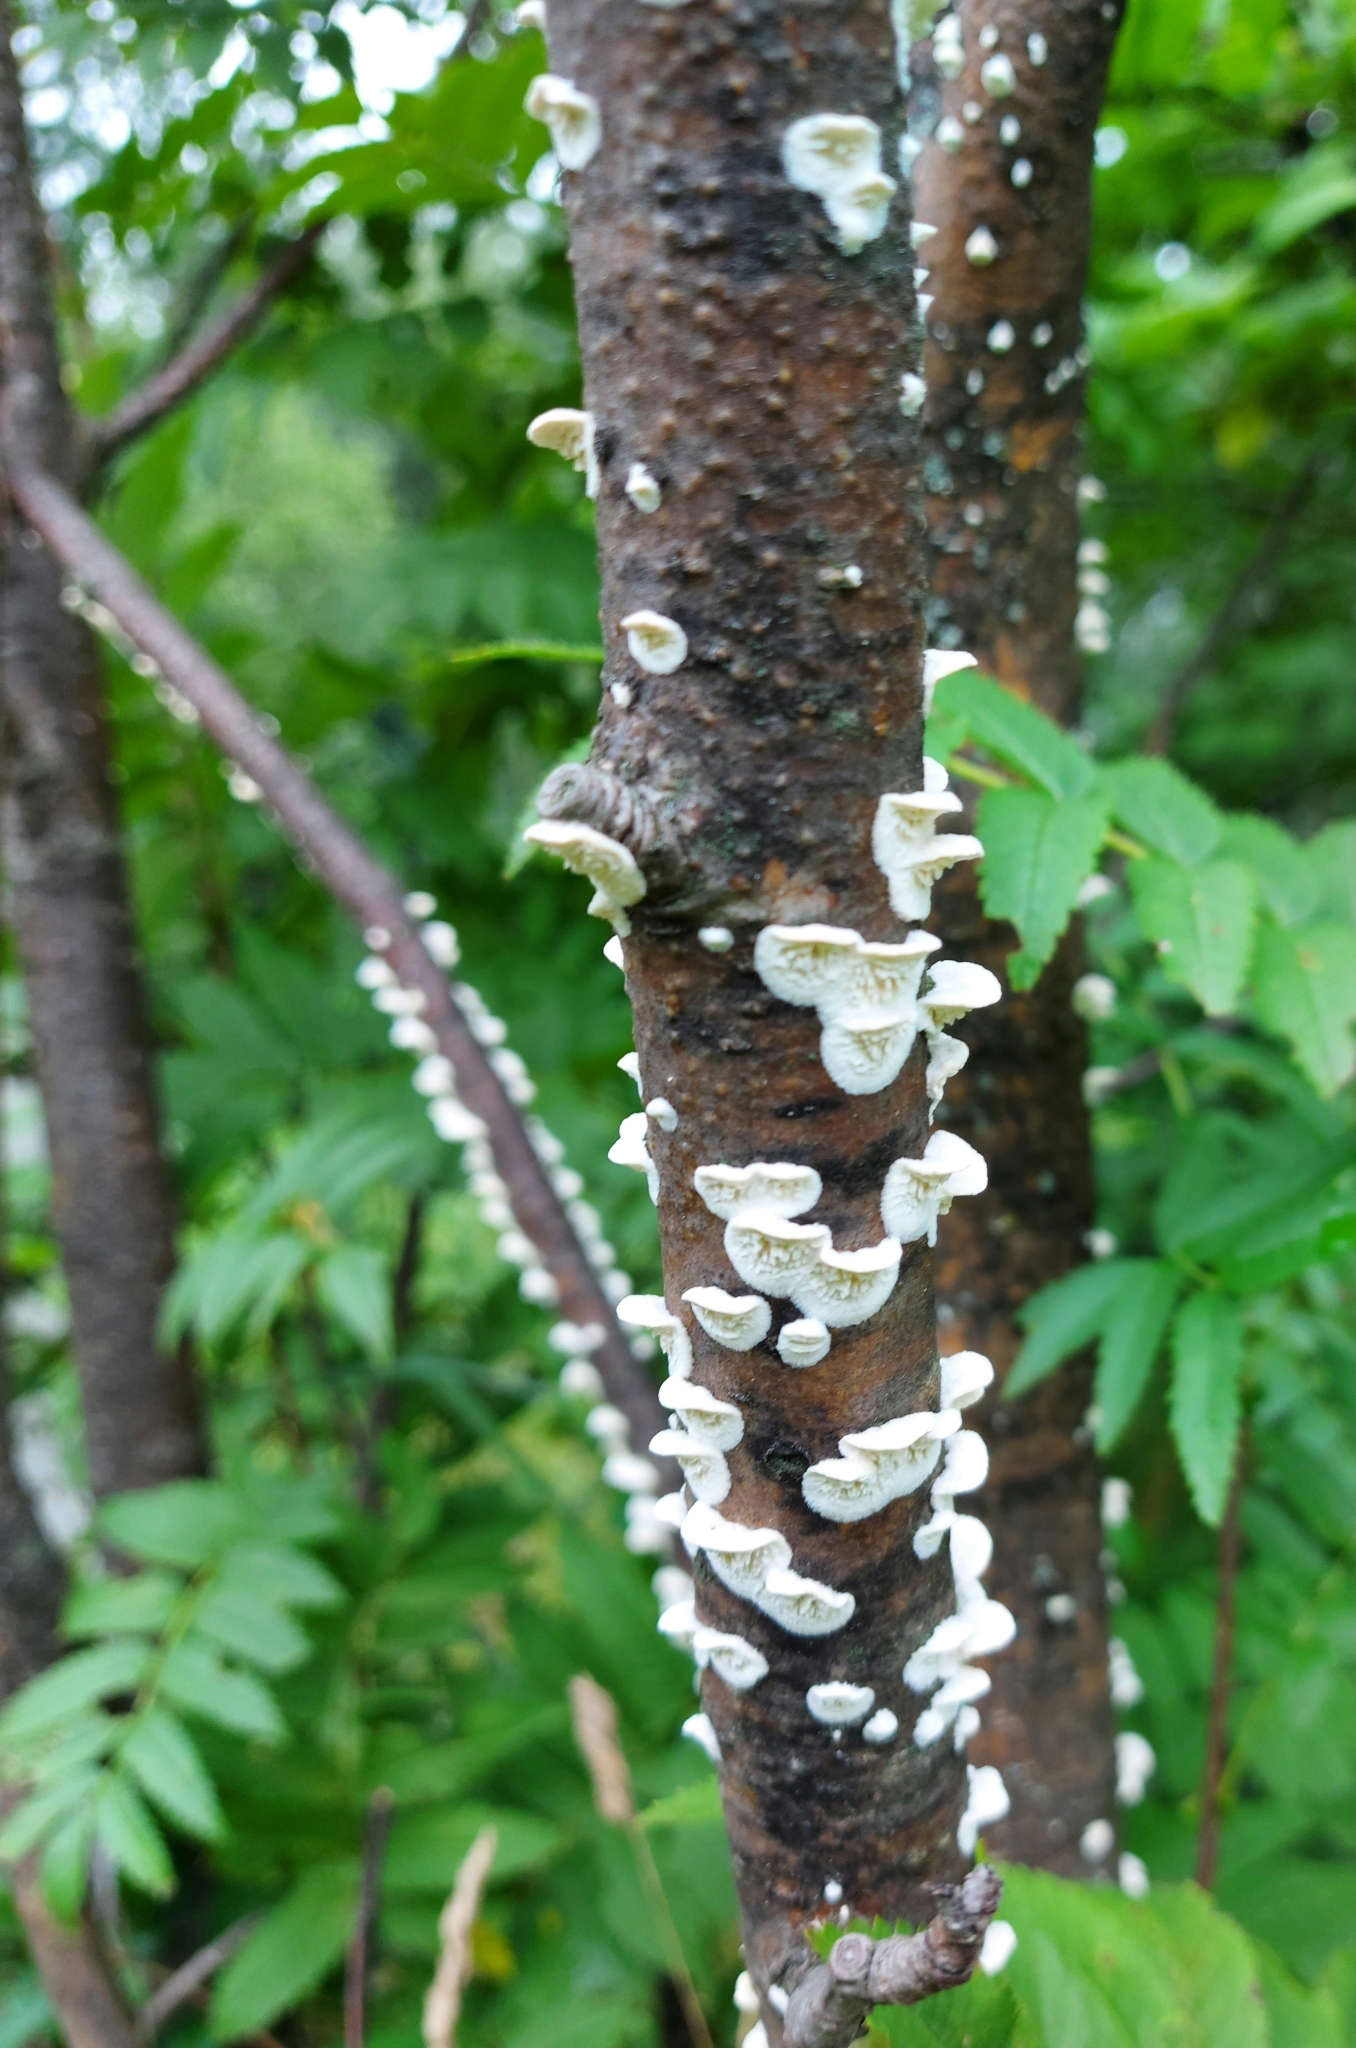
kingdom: Fungi
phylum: Basidiomycota
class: Agaricomycetes
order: Polyporales
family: Irpicaceae
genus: Irpex
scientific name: Irpex lacteus
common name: Milk-white toothed polypore
